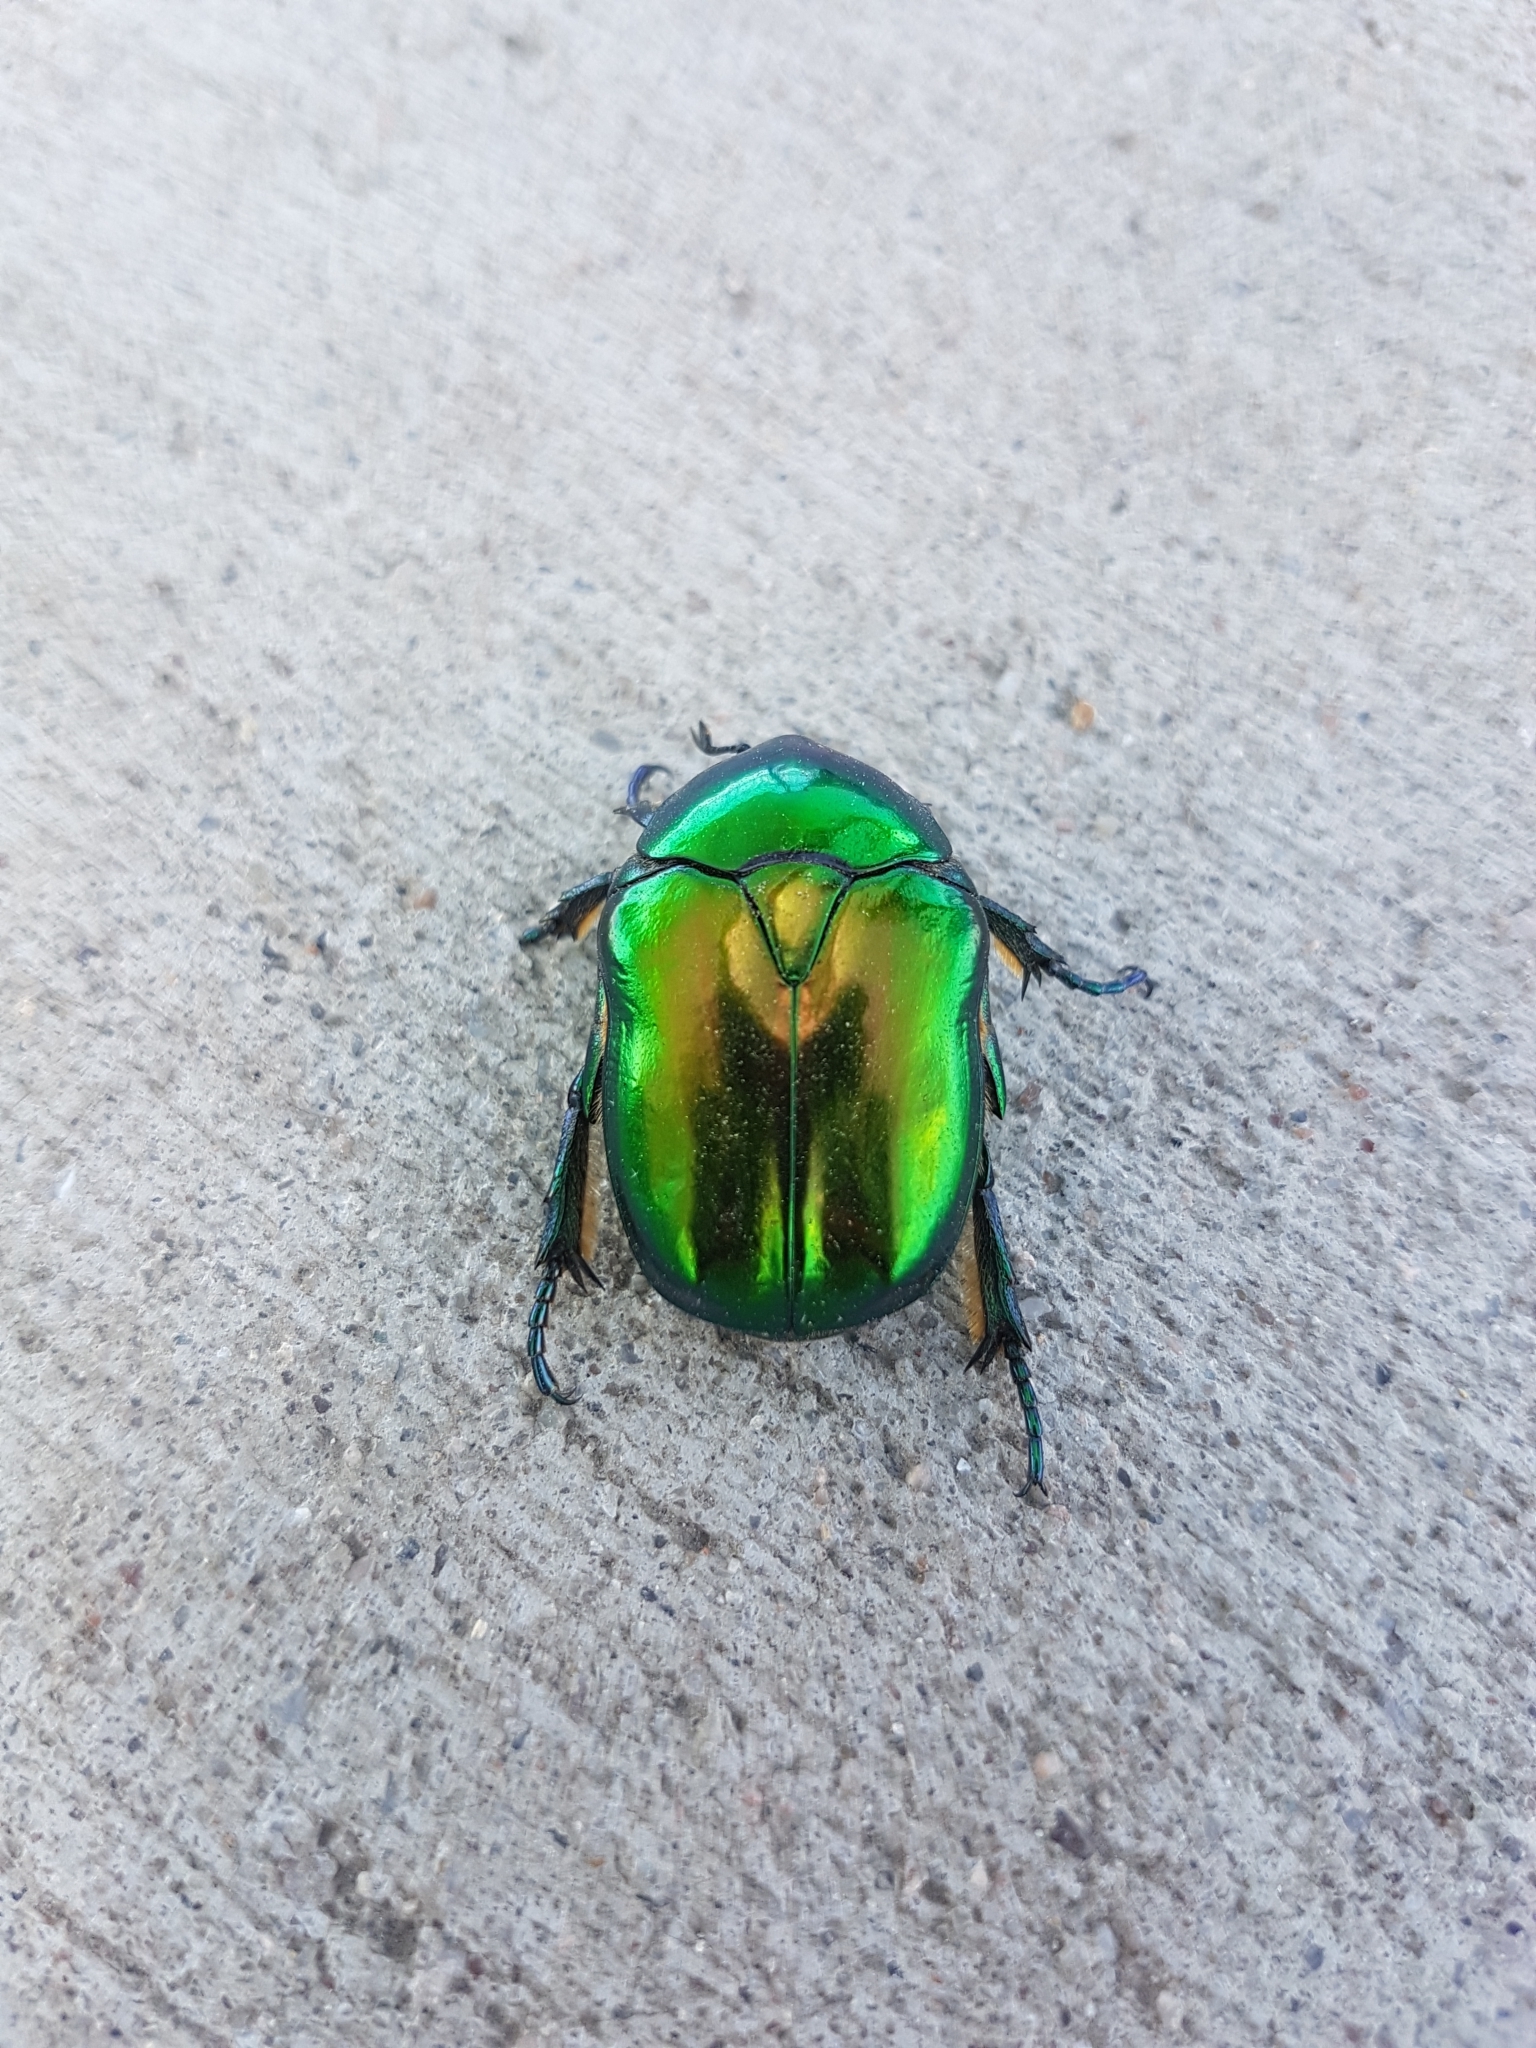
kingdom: Animalia
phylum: Arthropoda
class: Insecta
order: Coleoptera
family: Scarabaeidae
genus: Protaetia
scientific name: Protaetia speciosissima
